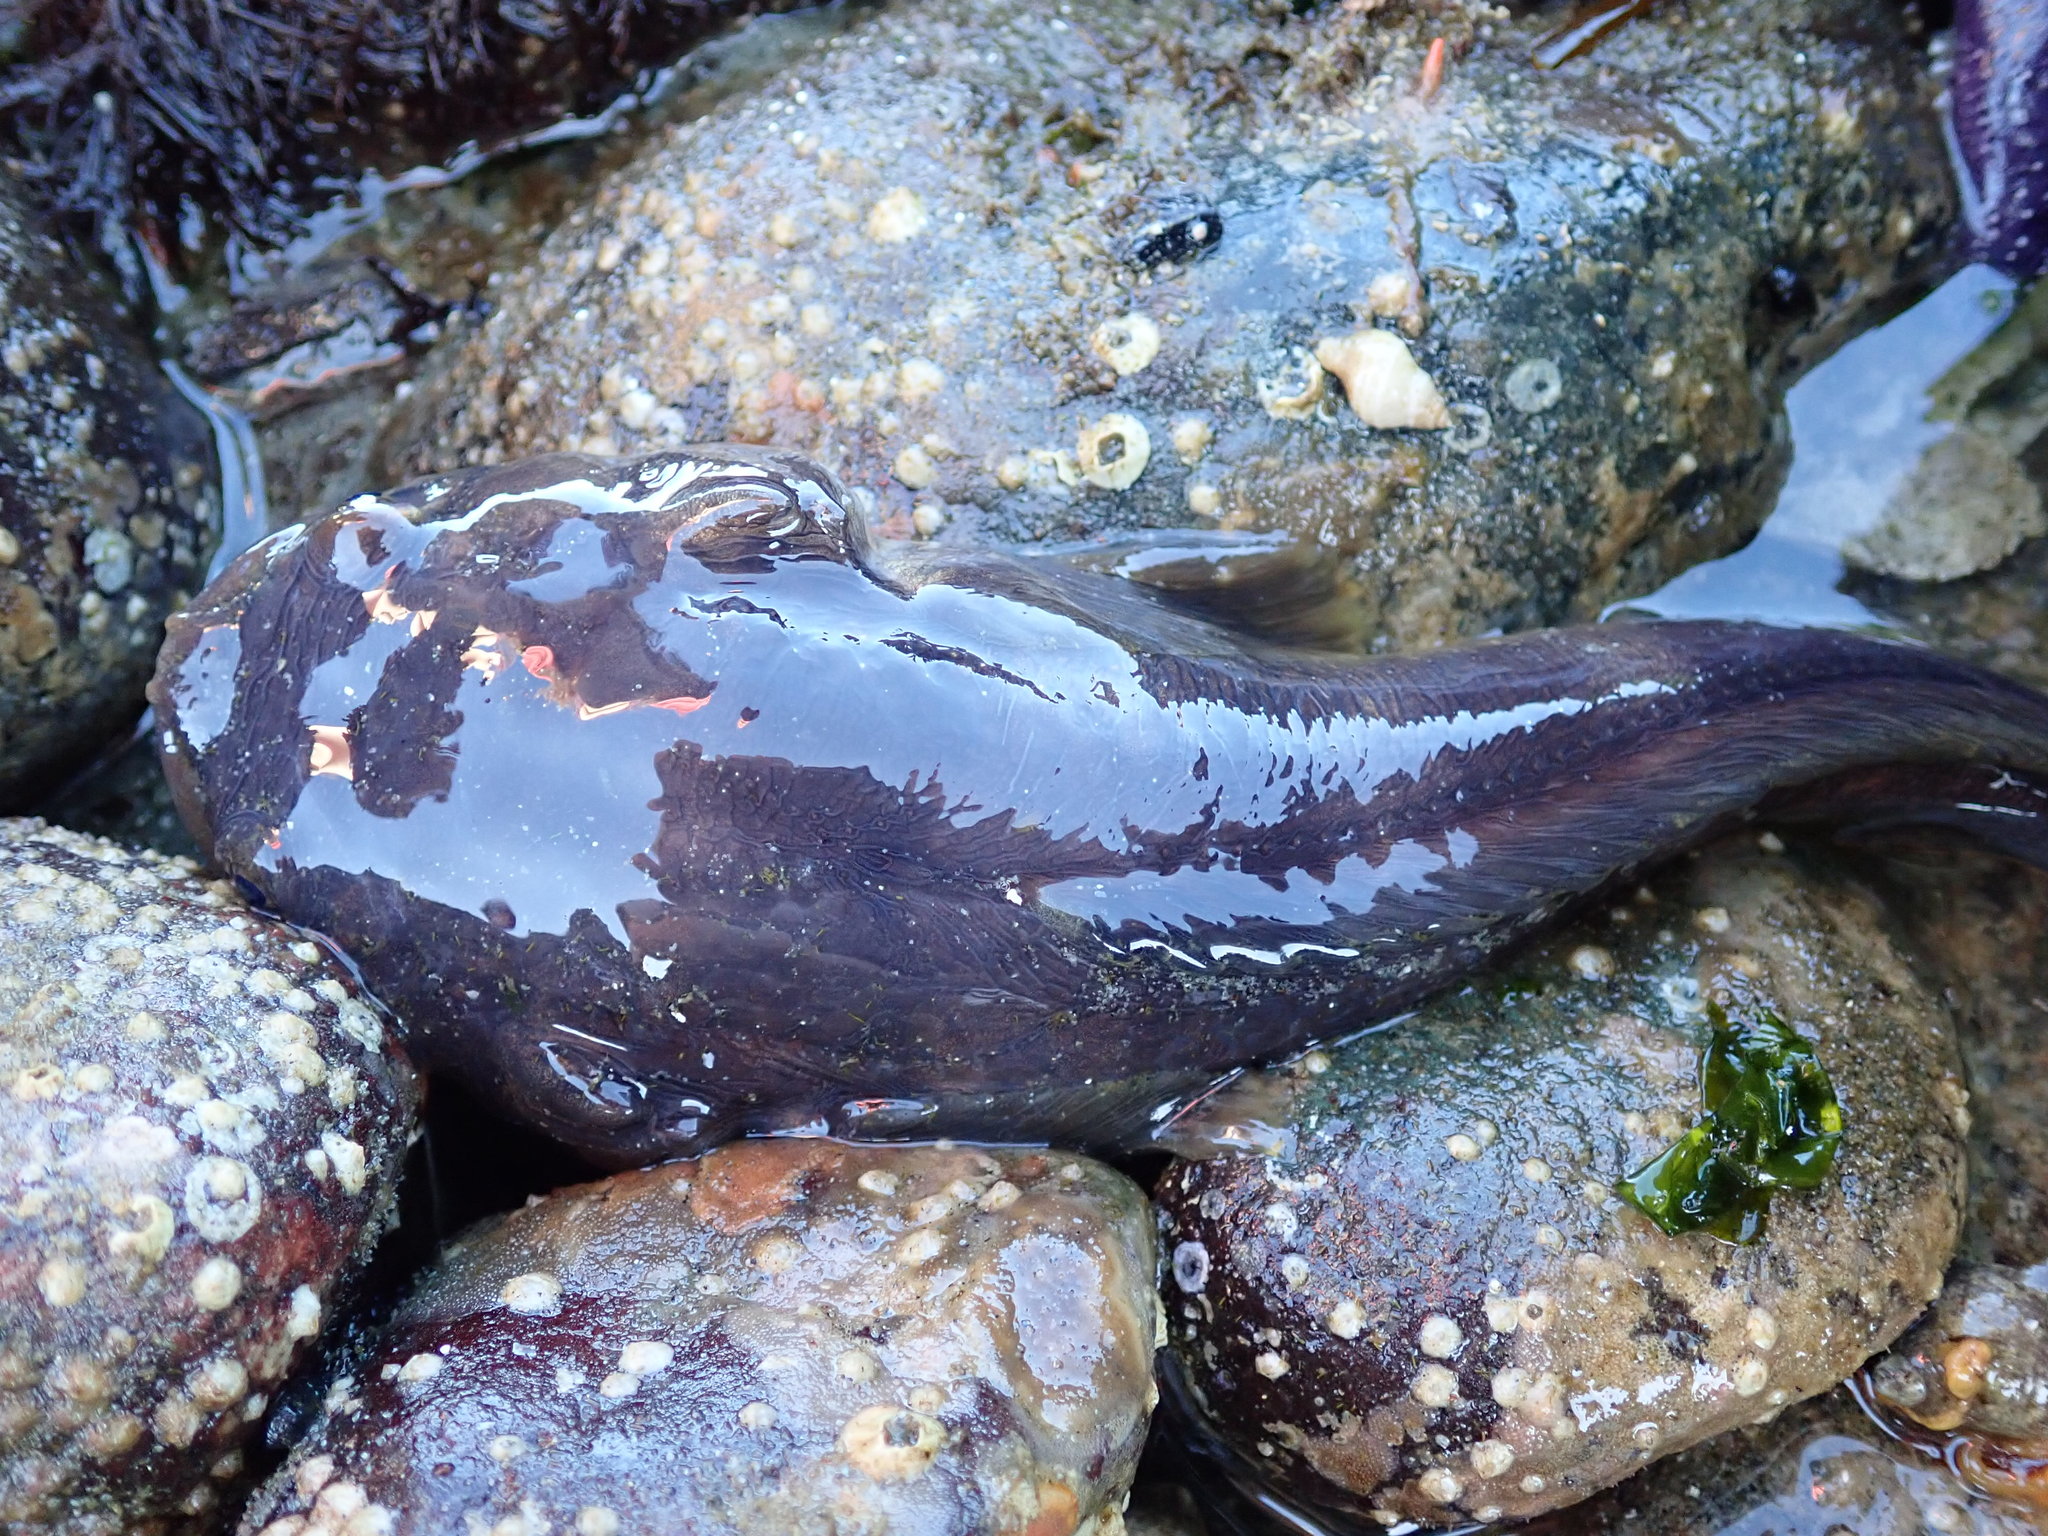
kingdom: Animalia
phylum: Chordata
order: Batrachoidiformes
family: Batrachoididae
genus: Porichthys
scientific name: Porichthys notatus
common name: Plainfin midshipman
